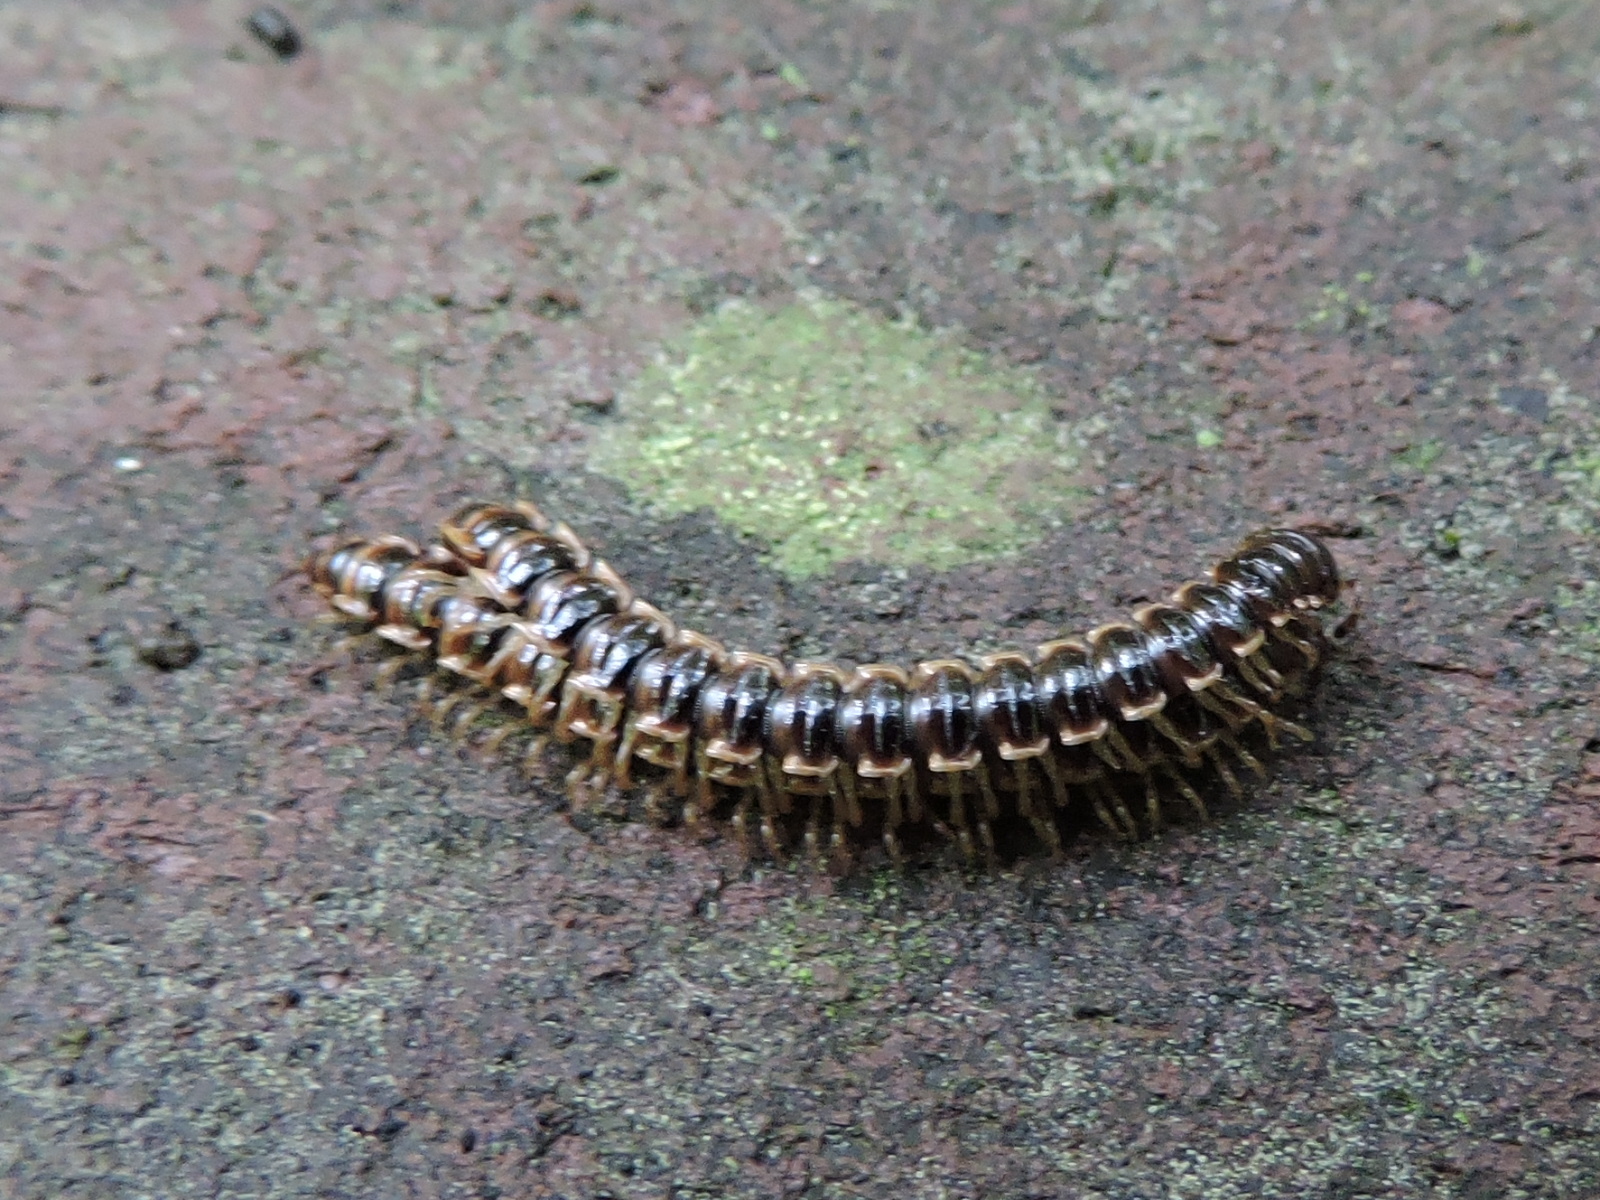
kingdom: Animalia
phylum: Arthropoda
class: Diplopoda
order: Polydesmida
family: Paradoxosomatidae
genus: Oxidus
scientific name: Oxidus gracilis
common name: Greenhouse millipede
